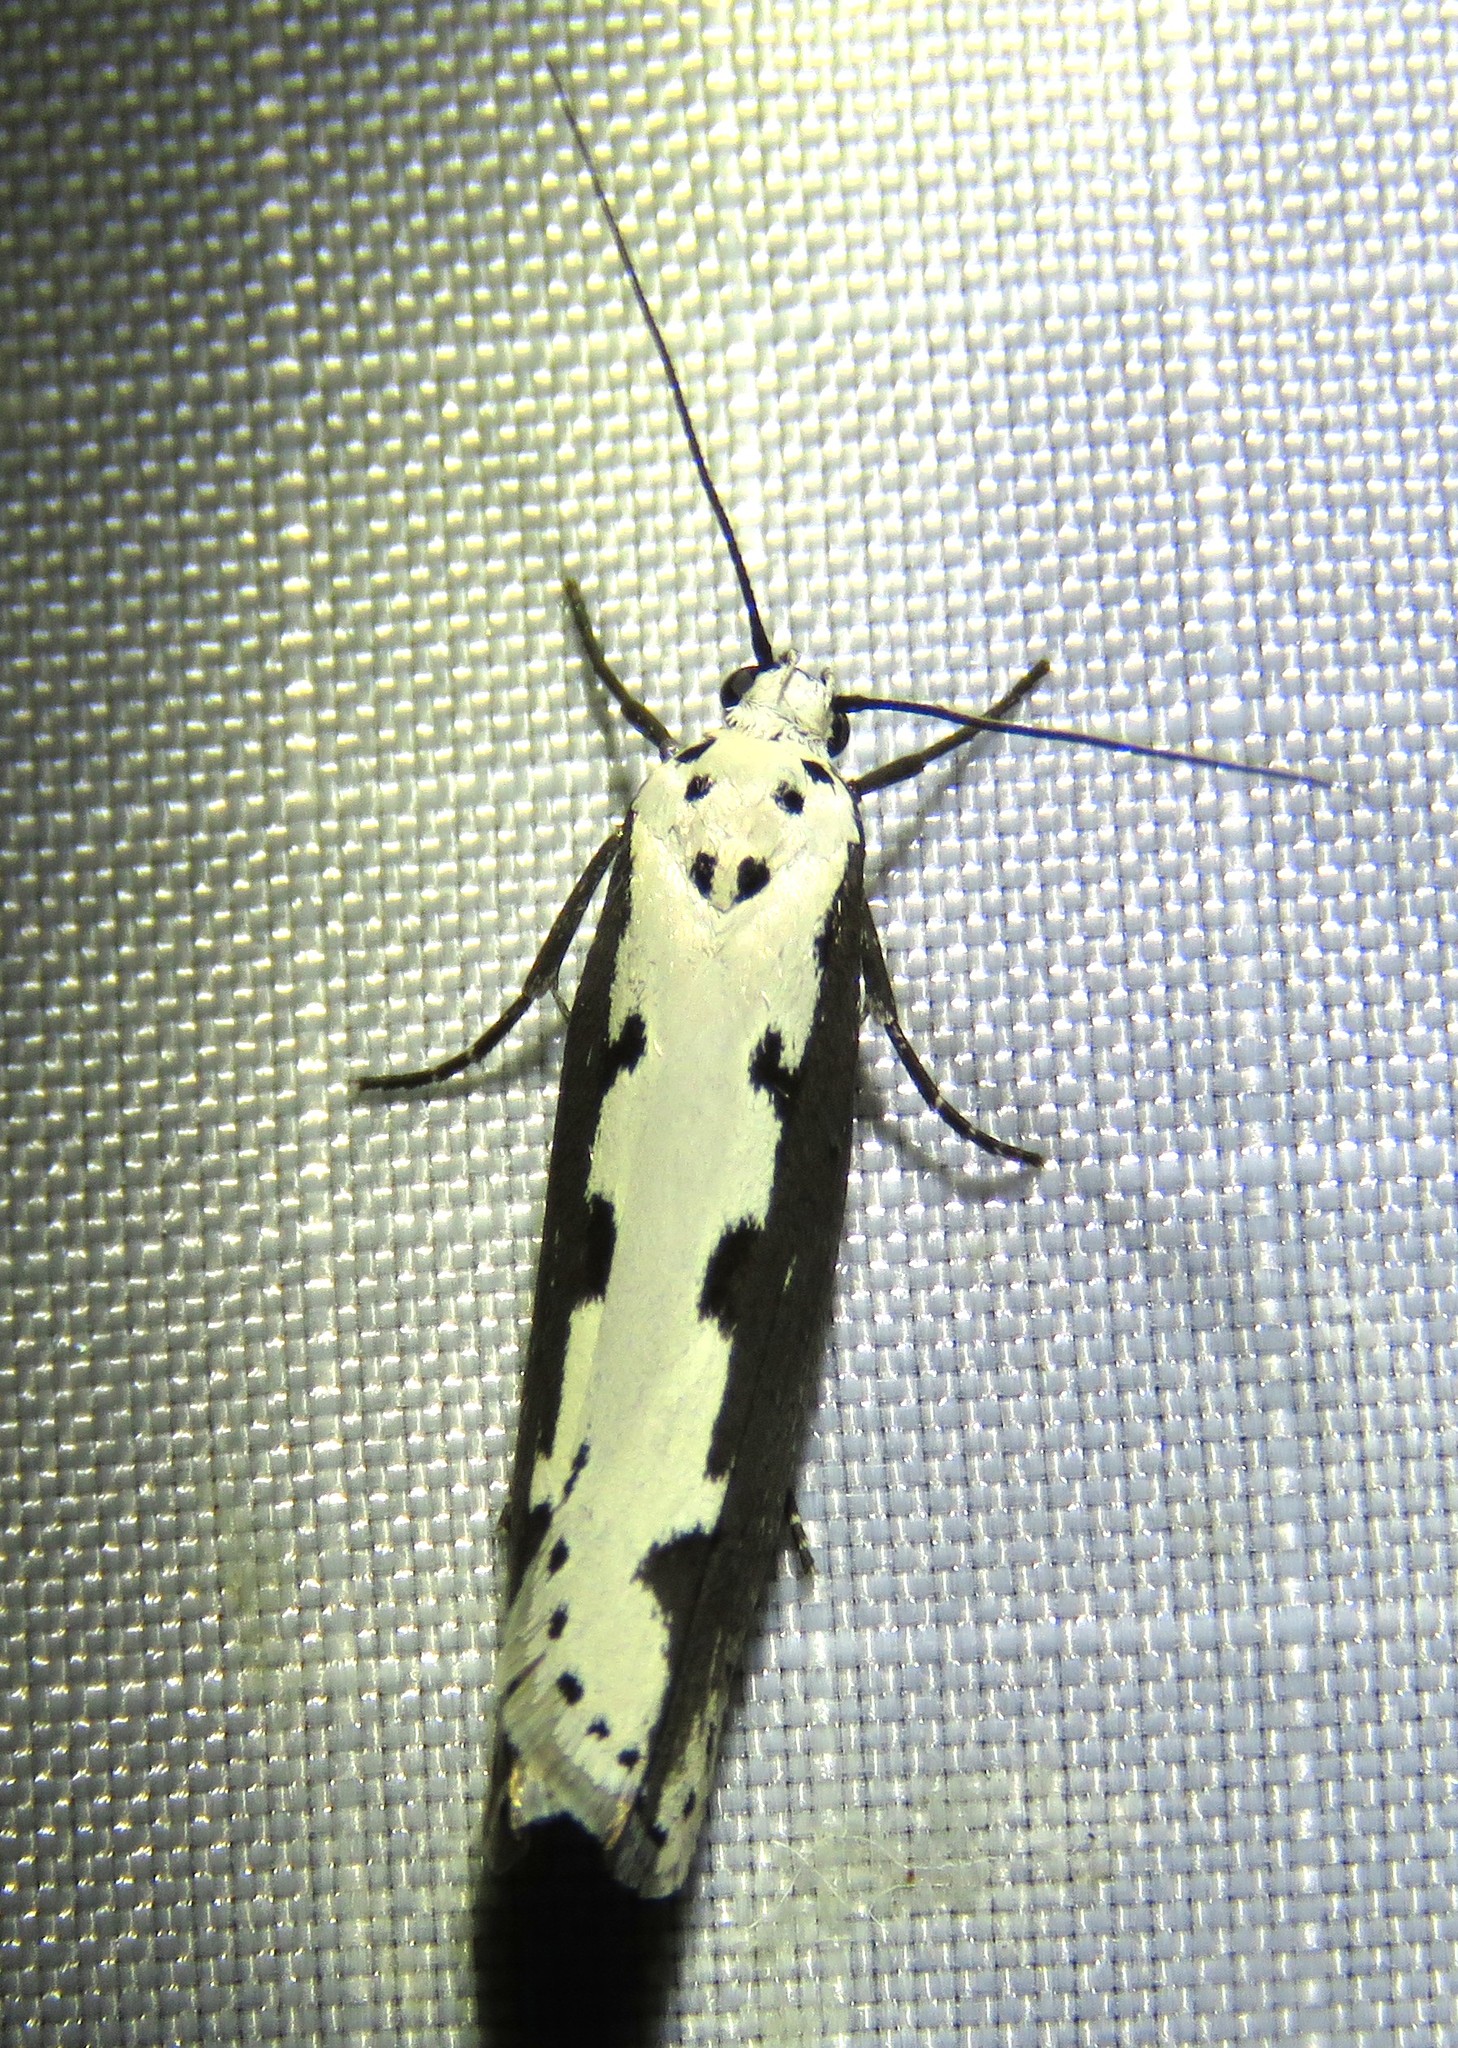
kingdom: Animalia
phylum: Arthropoda
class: Insecta
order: Lepidoptera
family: Ethmiidae
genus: Ethmia
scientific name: Ethmia bipunctella
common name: Bordered ermel
